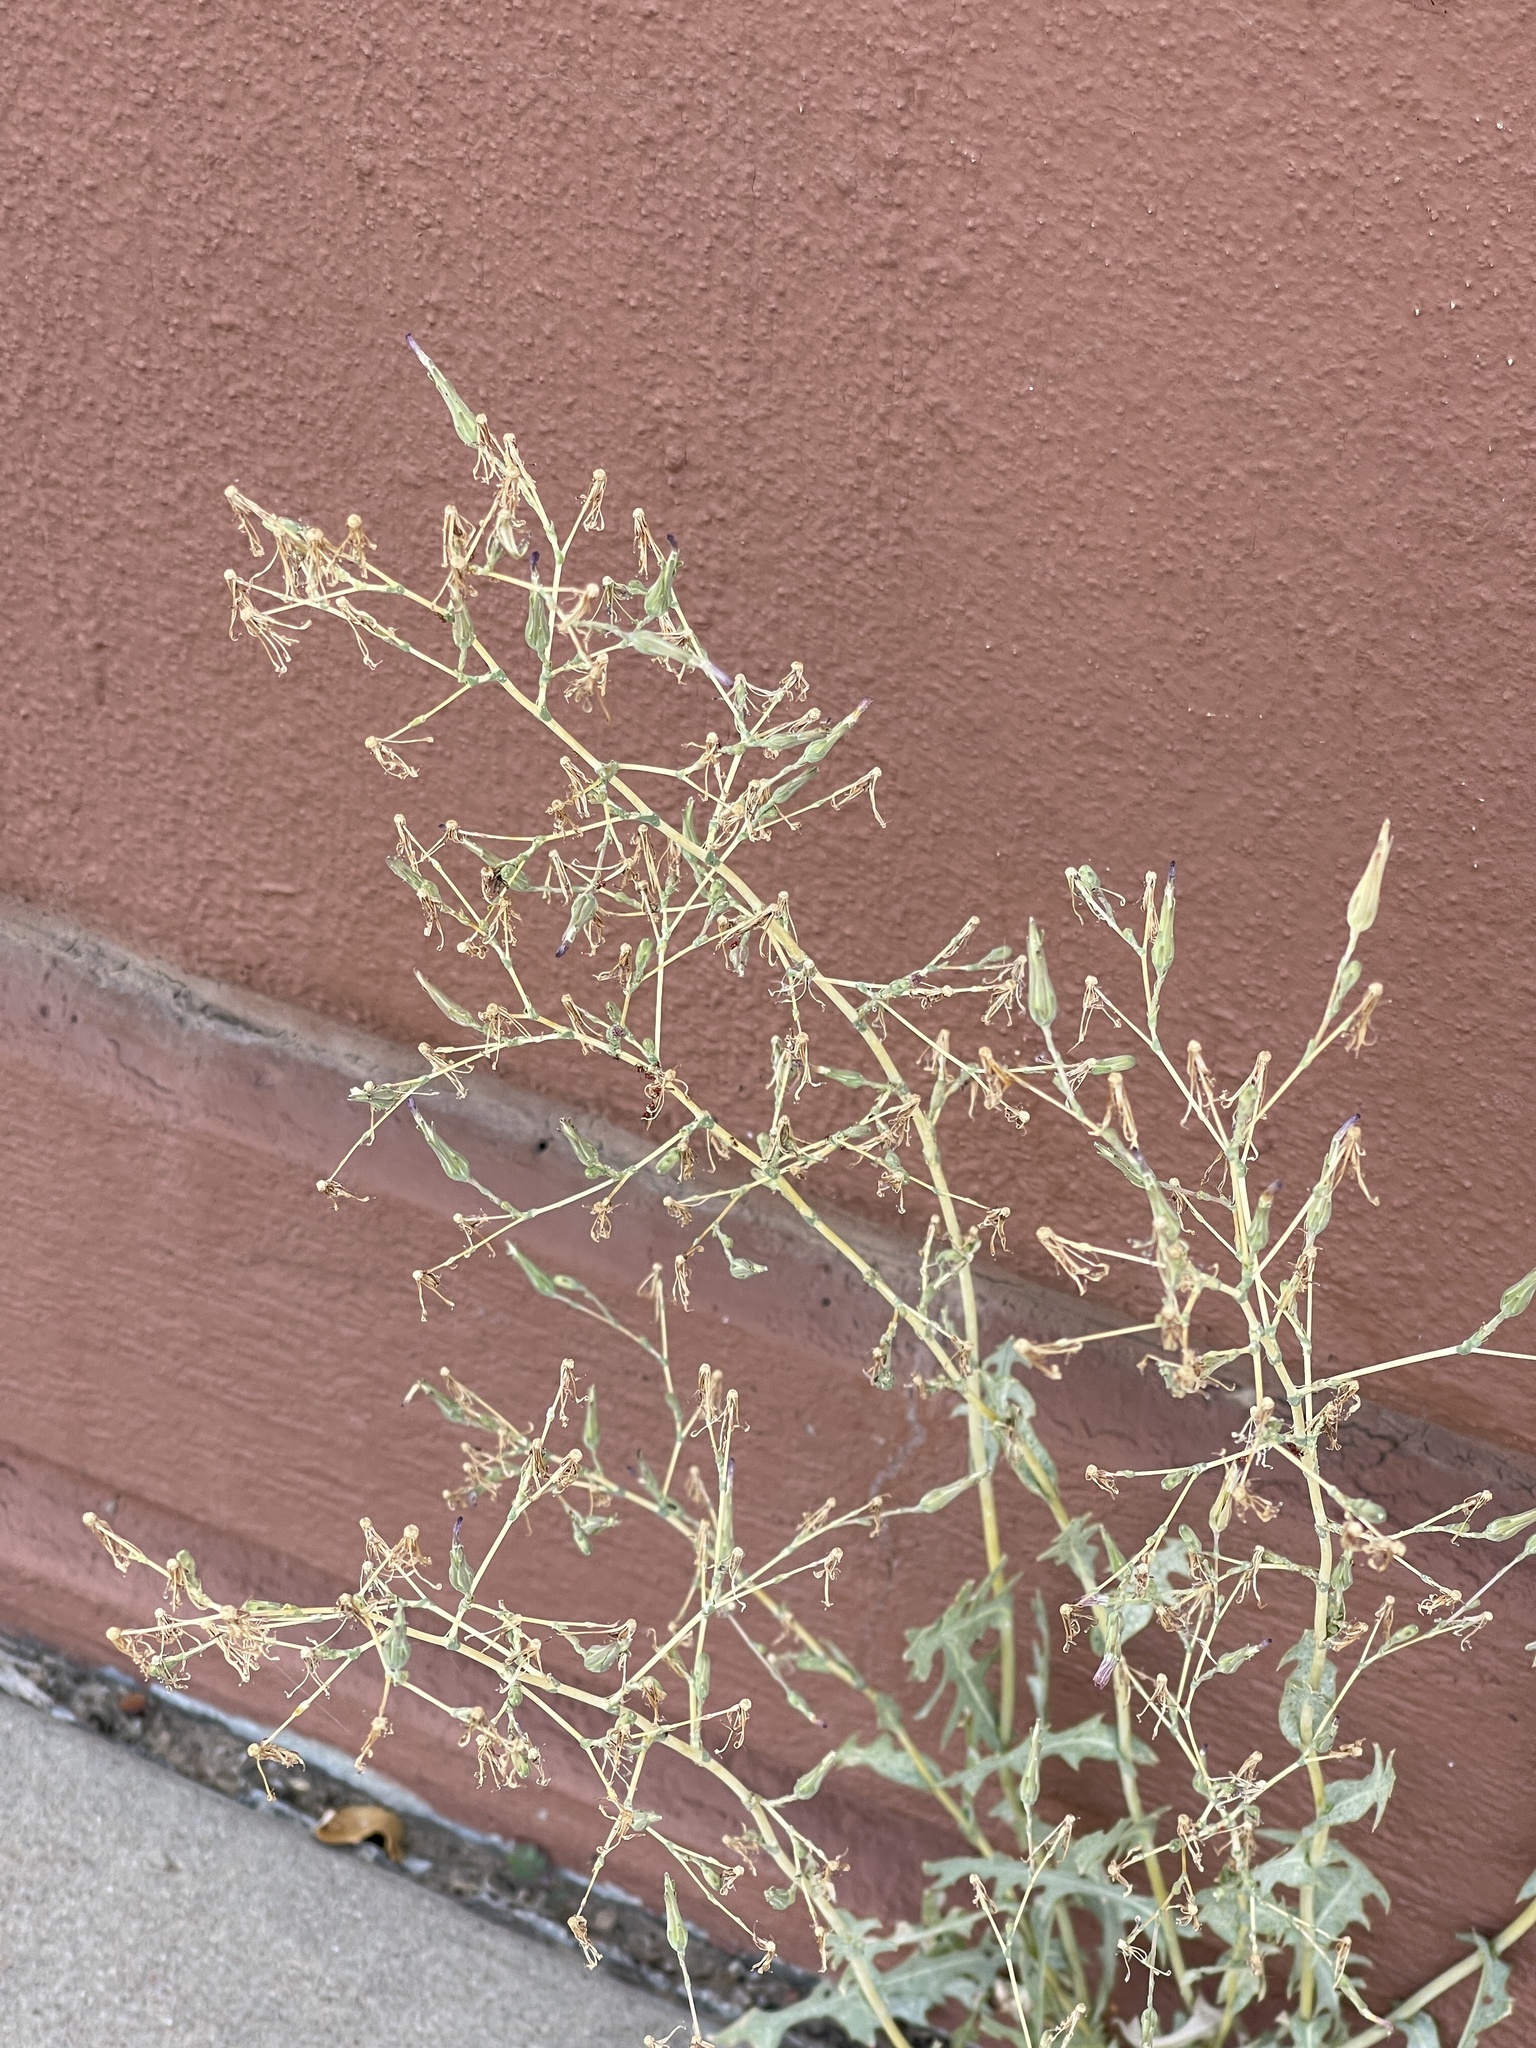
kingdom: Plantae
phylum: Tracheophyta
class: Magnoliopsida
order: Asterales
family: Asteraceae
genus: Lactuca
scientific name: Lactuca serriola
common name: Prickly lettuce
